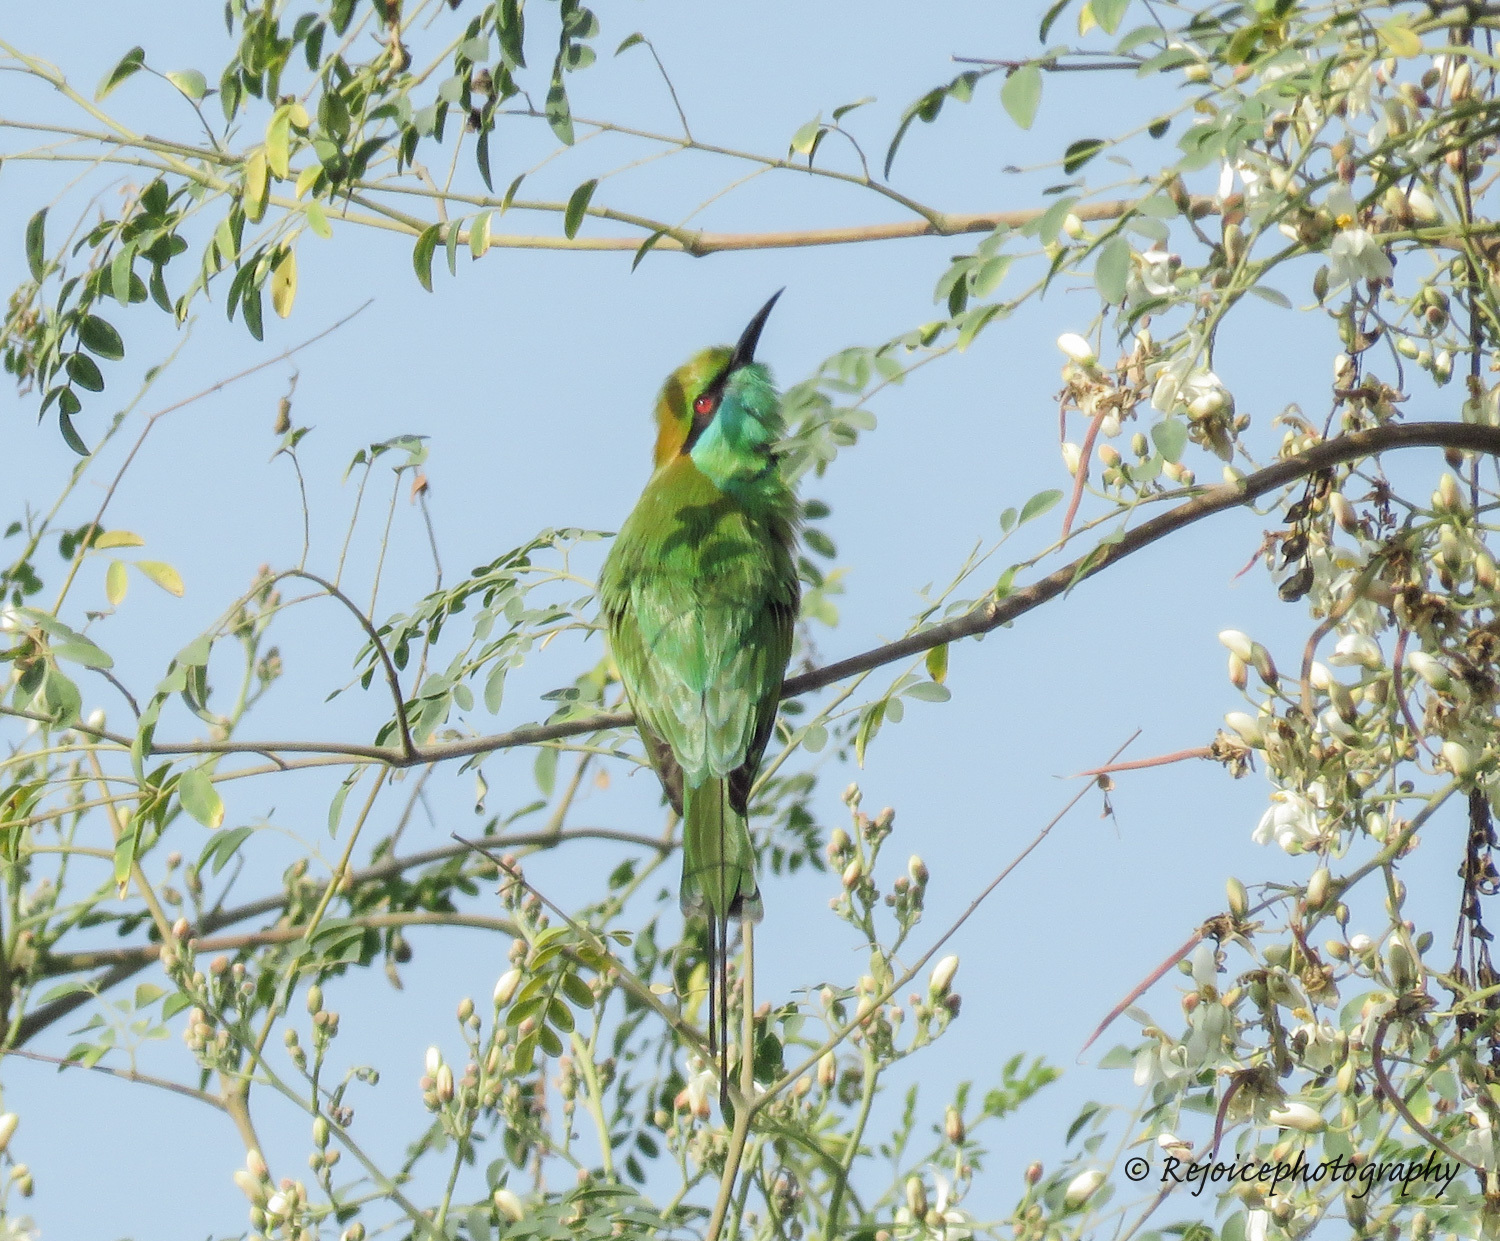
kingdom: Animalia
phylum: Chordata
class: Aves
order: Coraciiformes
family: Meropidae
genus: Merops
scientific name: Merops orientalis
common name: Green bee-eater
